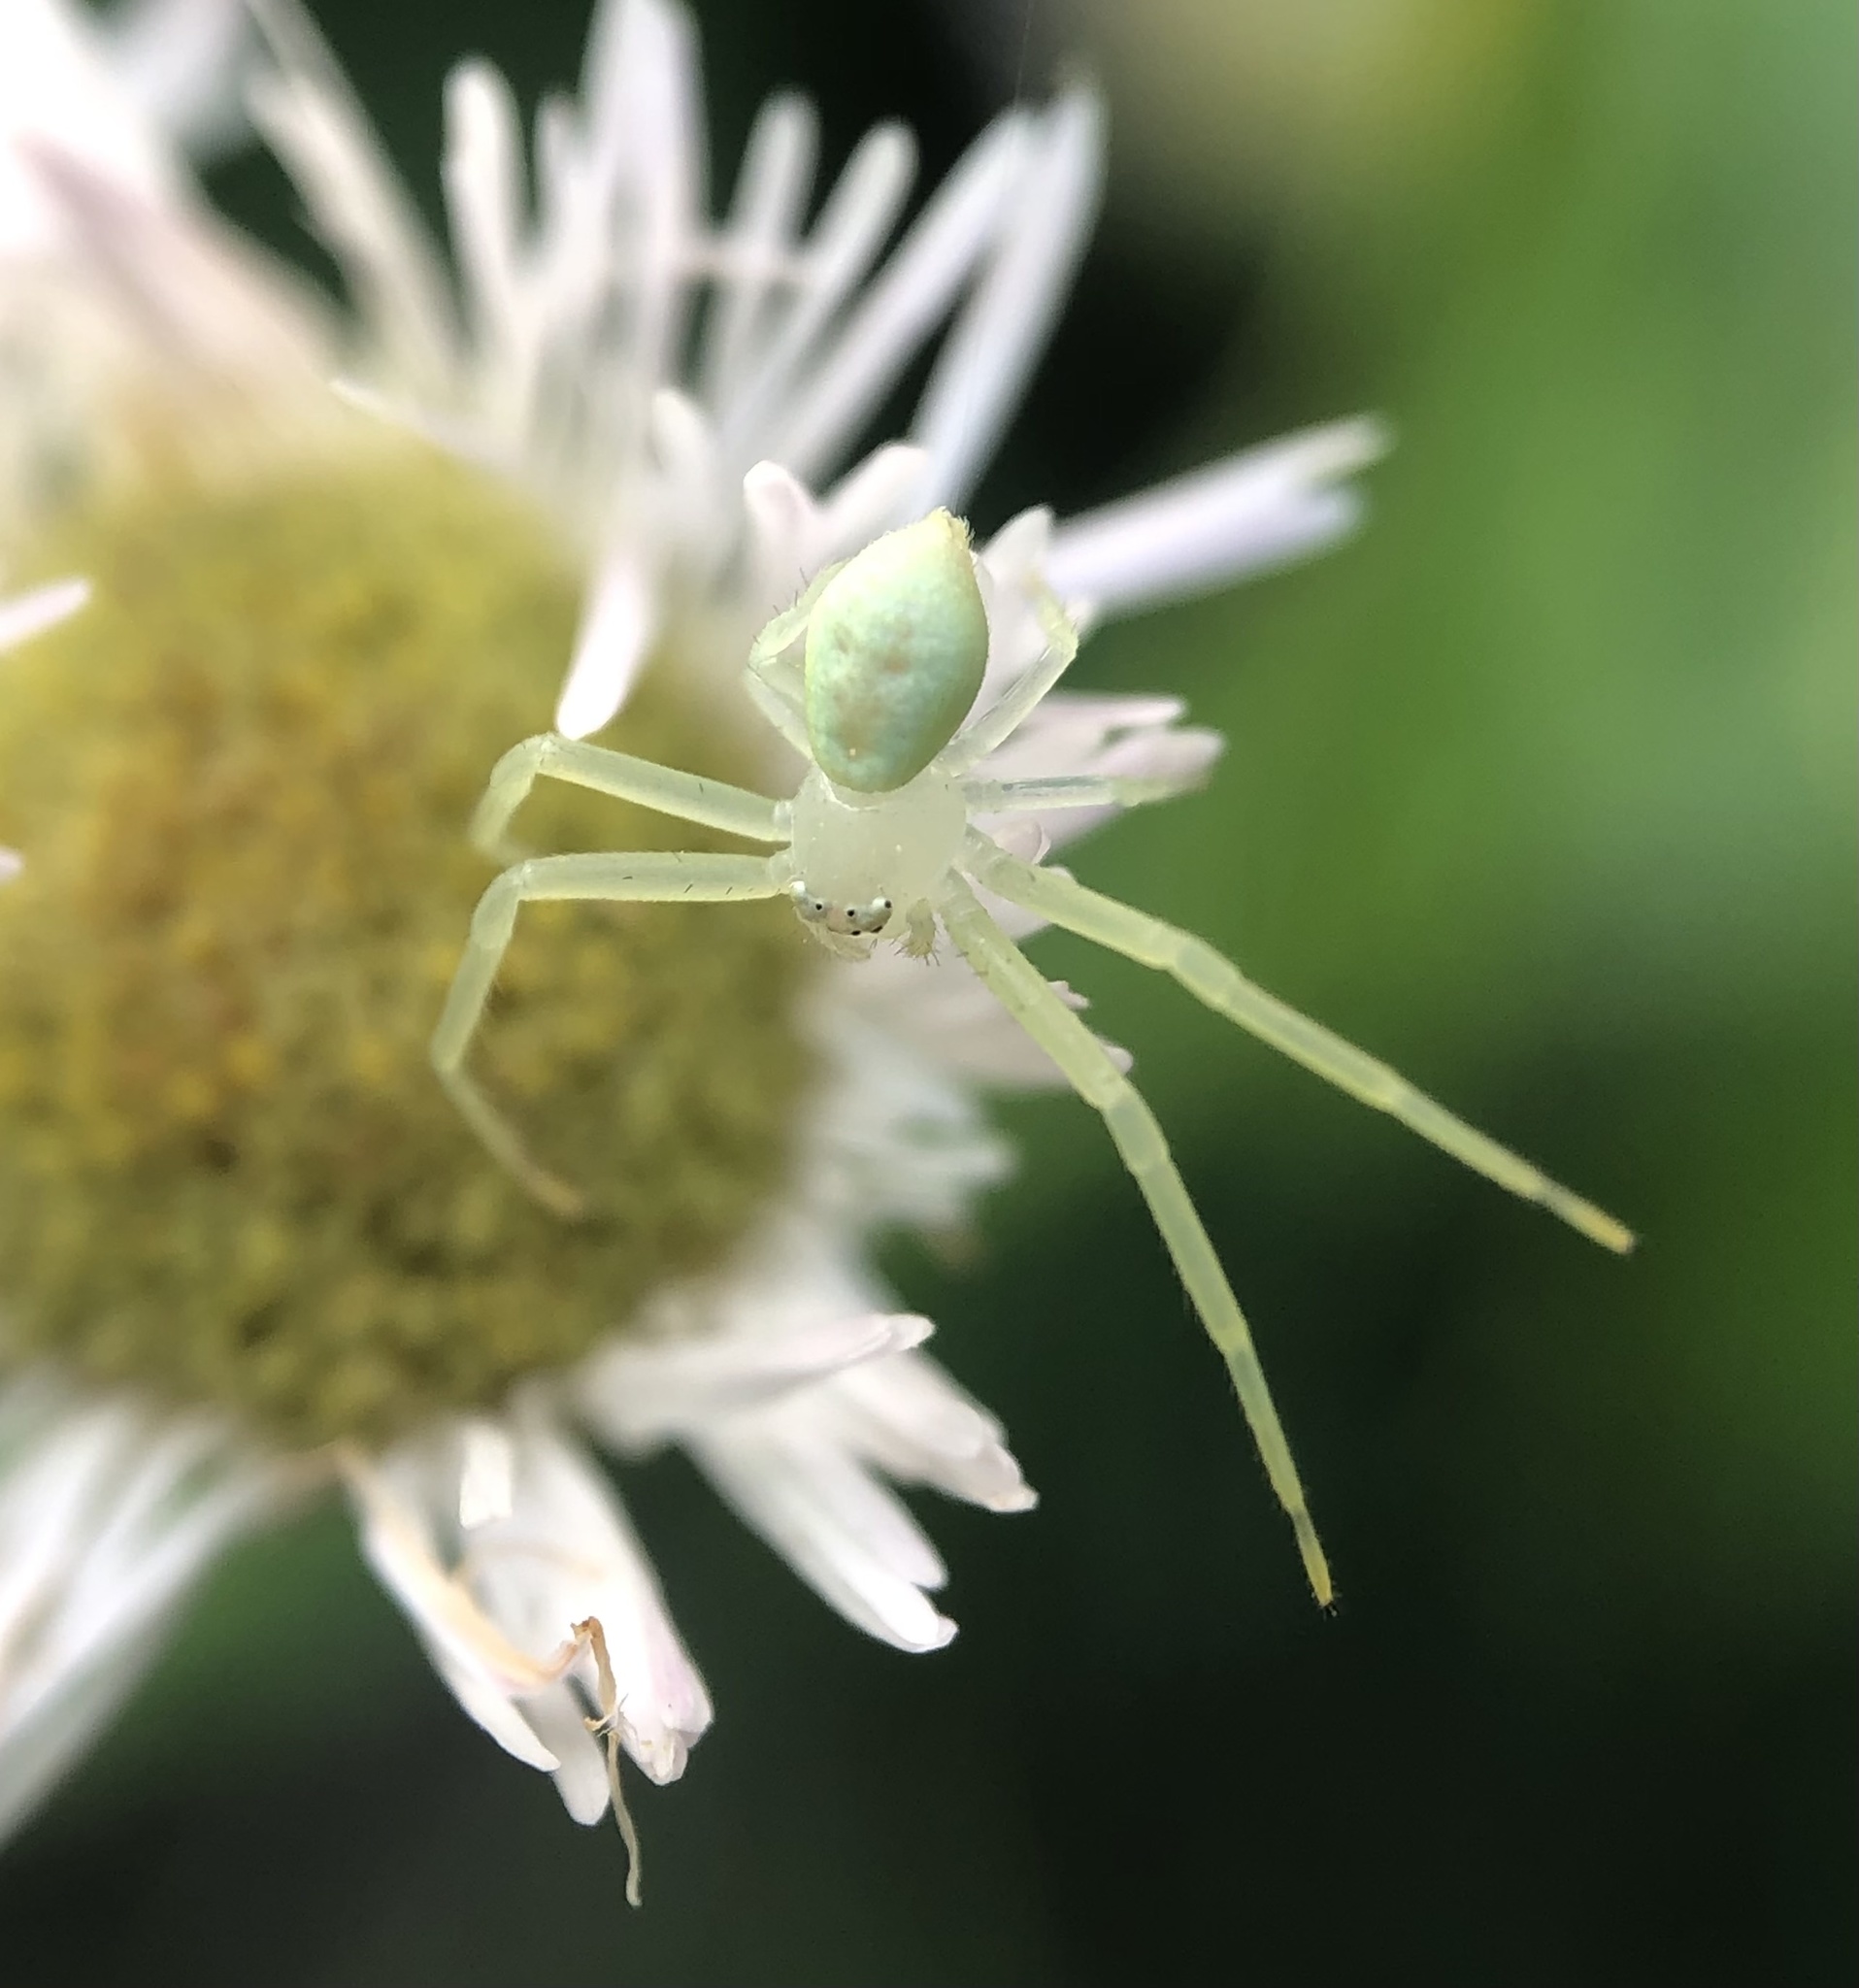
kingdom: Animalia
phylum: Arthropoda
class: Arachnida
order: Araneae
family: Thomisidae
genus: Misumessus
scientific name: Misumessus oblongus
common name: American green crab spider
